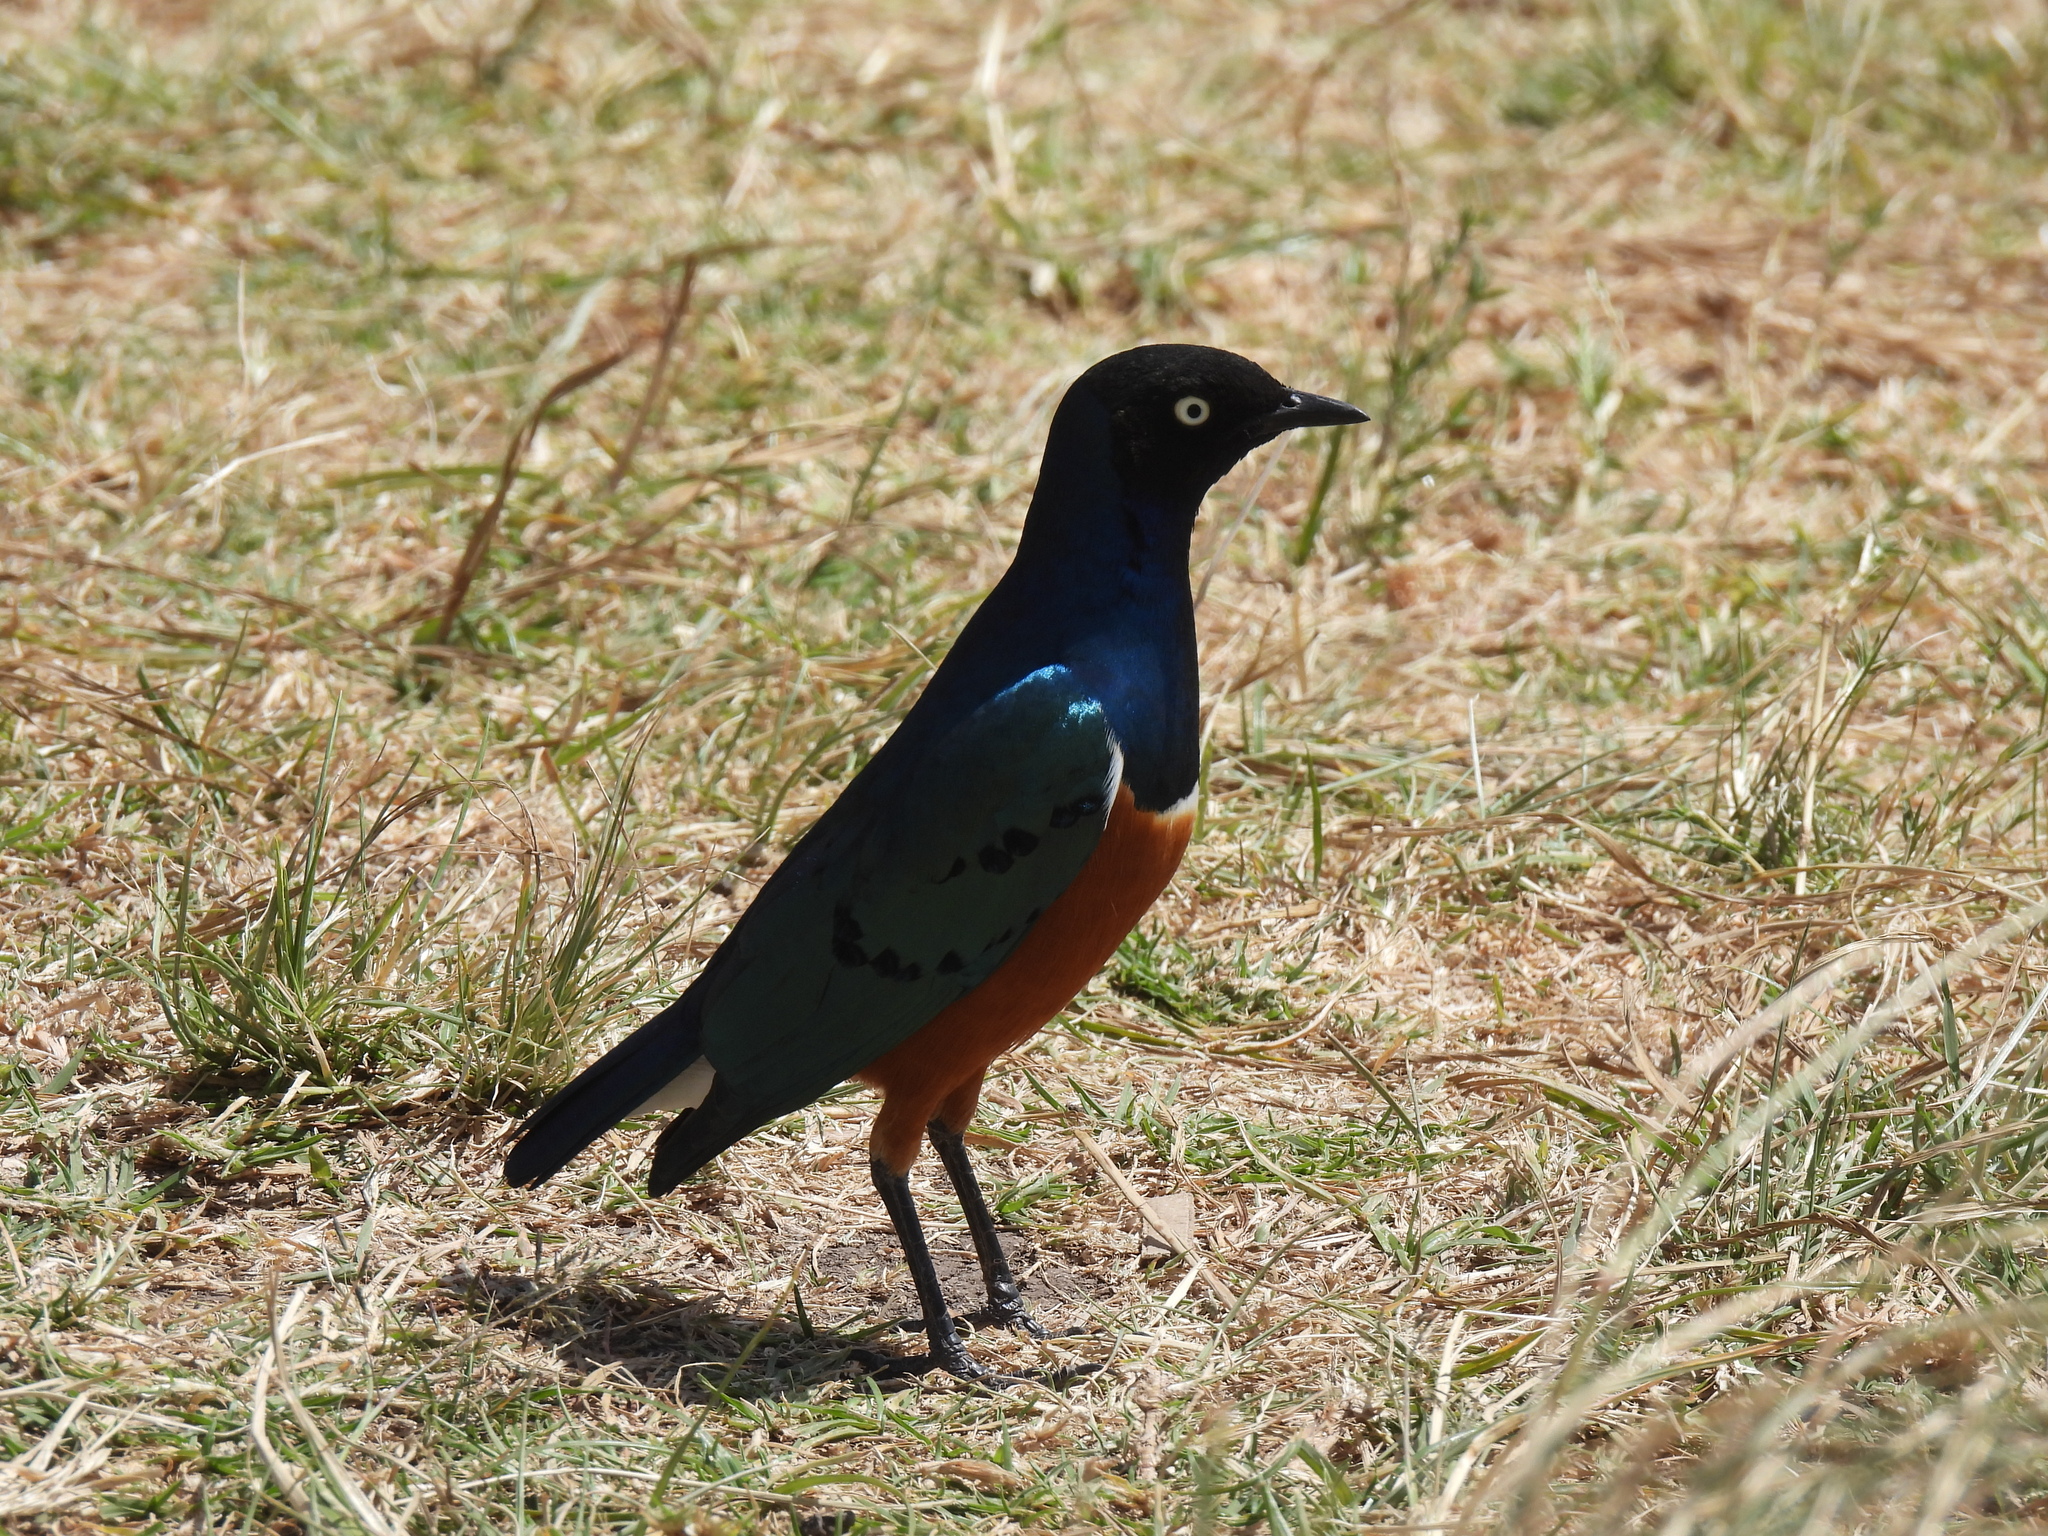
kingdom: Animalia
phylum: Chordata
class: Aves
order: Passeriformes
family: Sturnidae
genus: Lamprotornis
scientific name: Lamprotornis superbus
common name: Superb starling
